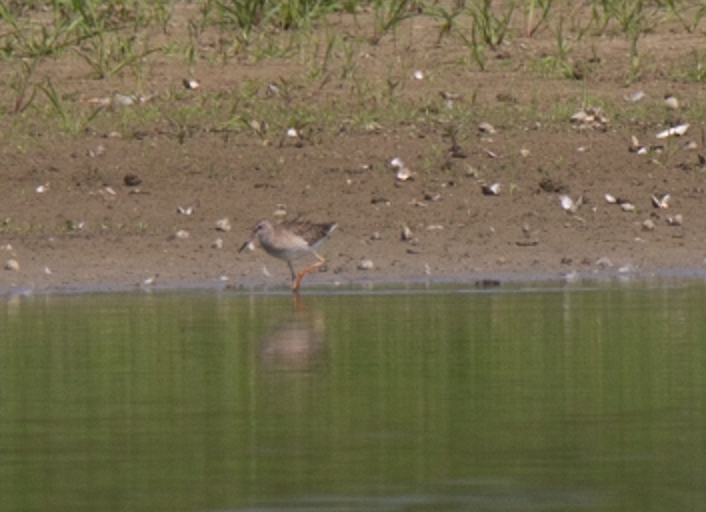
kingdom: Animalia
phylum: Chordata
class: Aves
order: Charadriiformes
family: Scolopacidae
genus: Tringa
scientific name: Tringa totanus
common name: Common redshank
